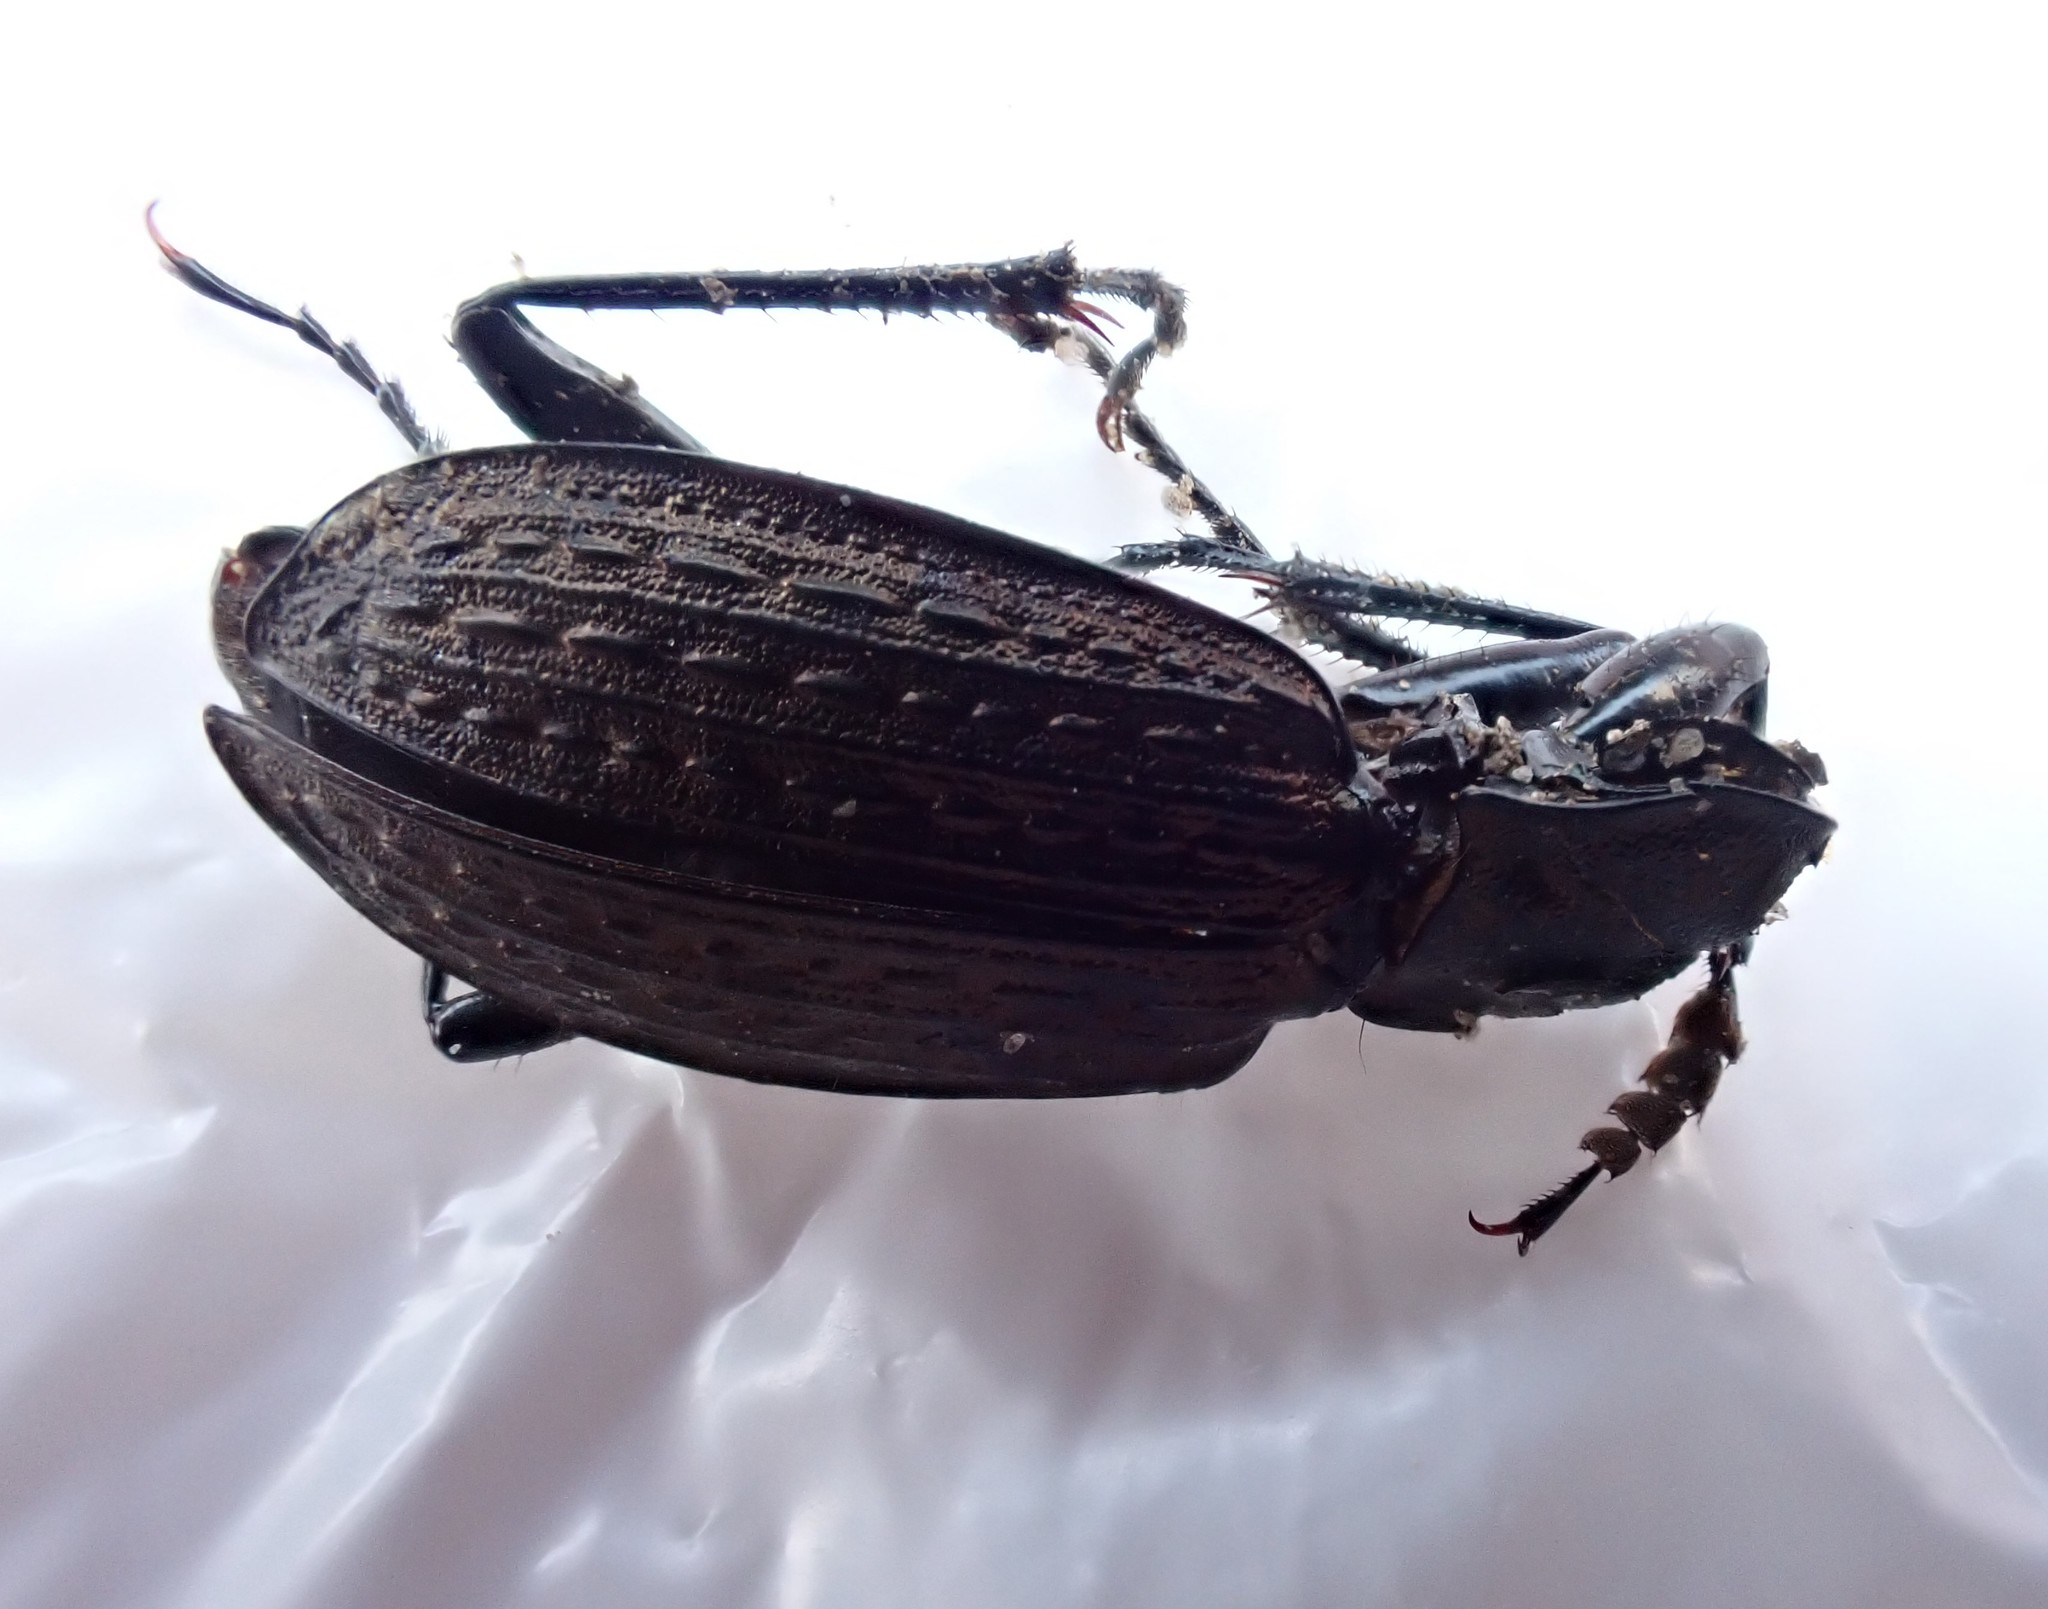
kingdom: Animalia
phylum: Arthropoda
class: Insecta
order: Coleoptera
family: Carabidae
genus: Carabus
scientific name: Carabus granulatus
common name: Granulate ground beetle
